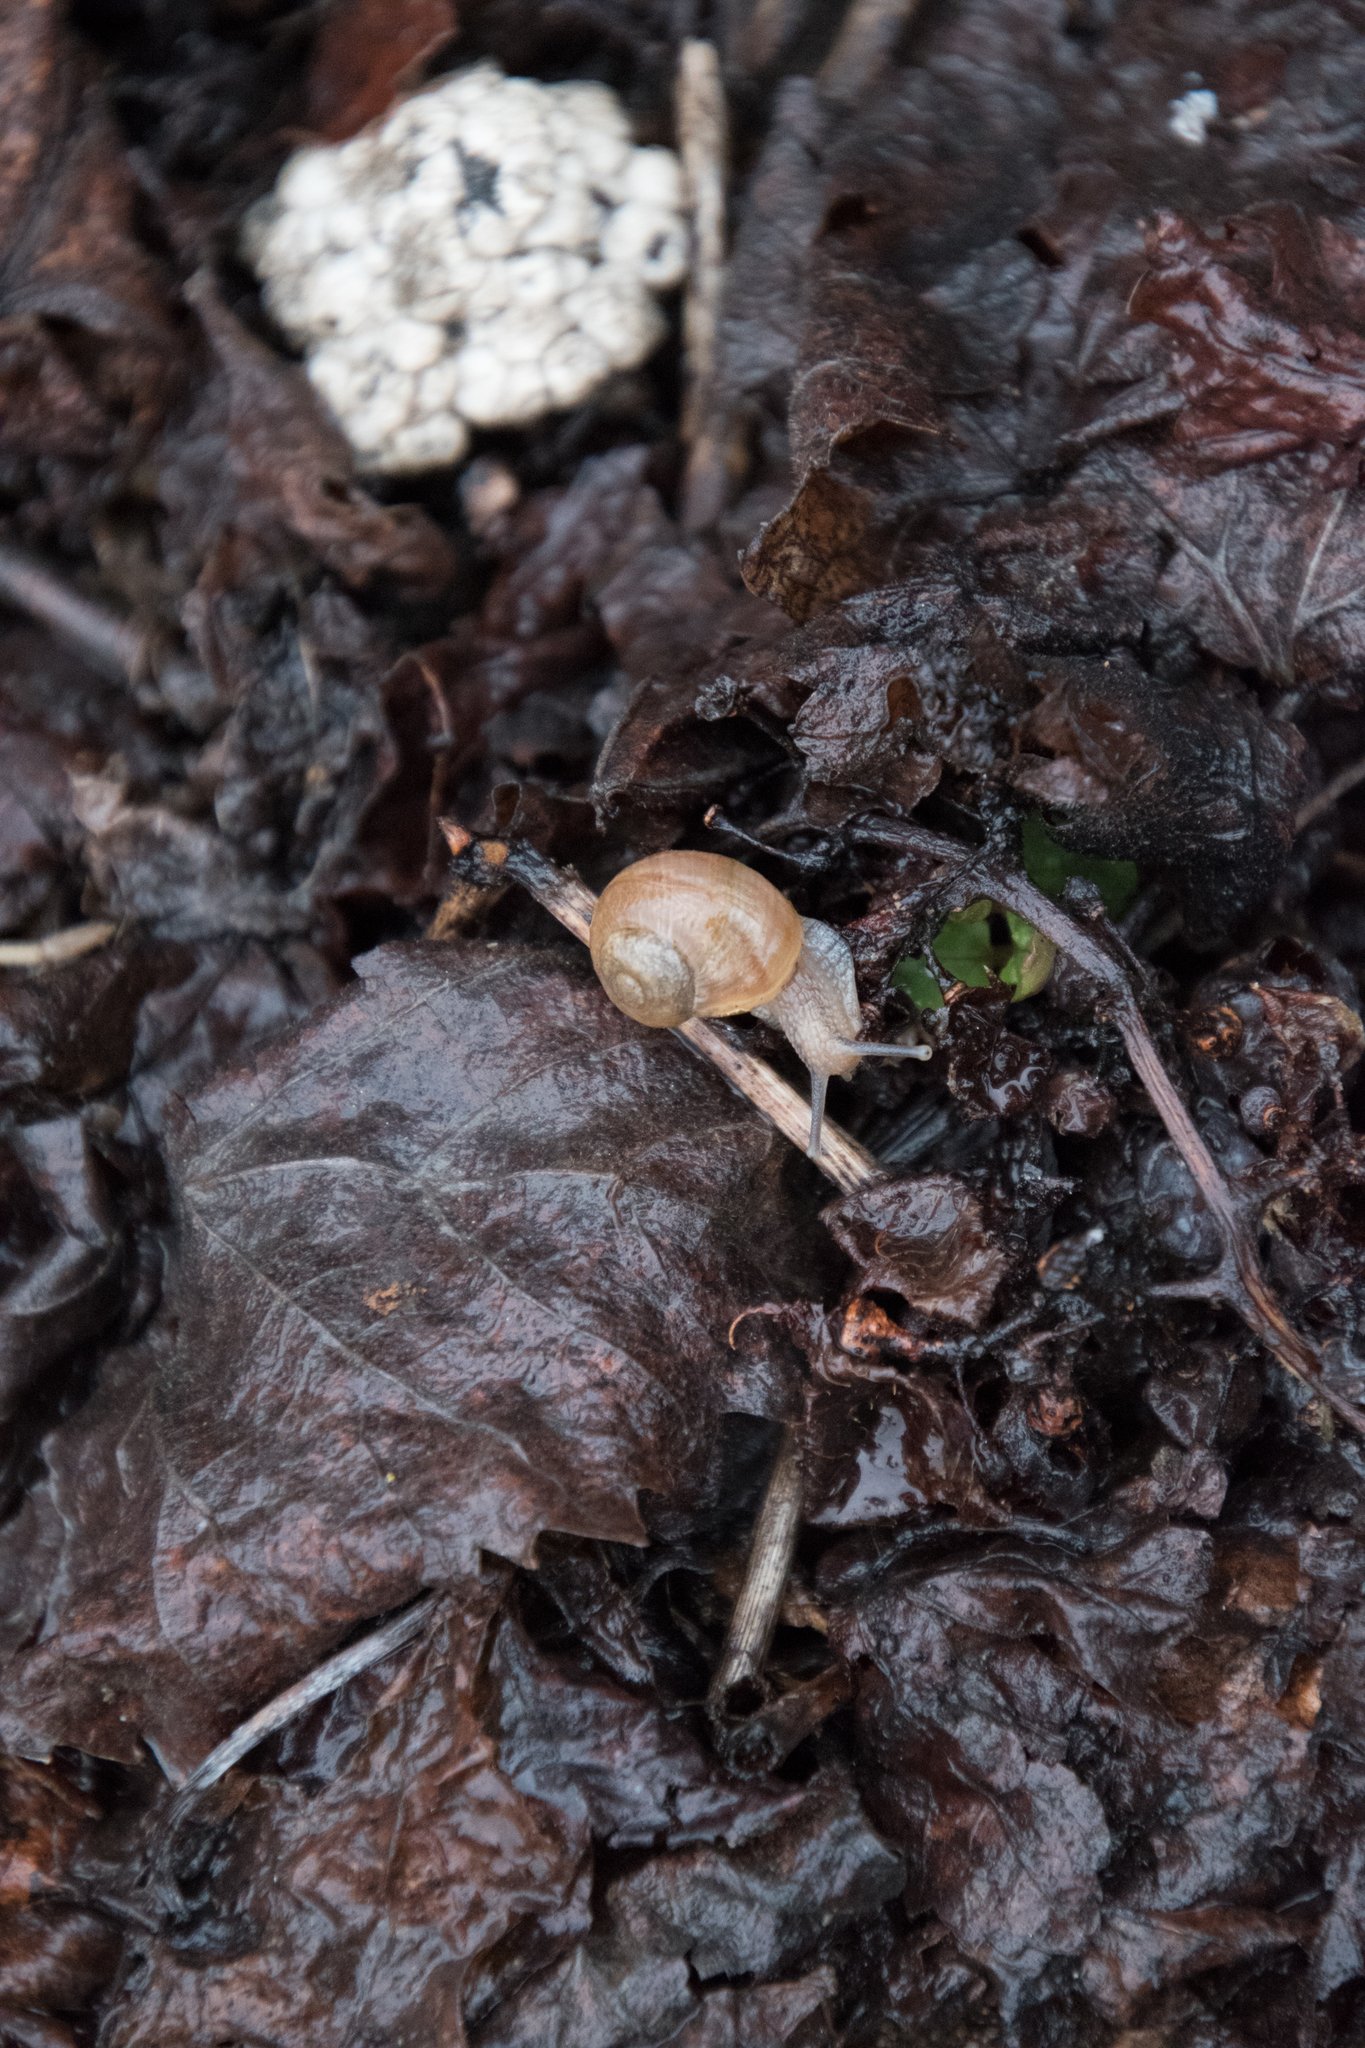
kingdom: Animalia
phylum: Mollusca
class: Gastropoda
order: Stylommatophora
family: Helicidae
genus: Helix
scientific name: Helix pomatia
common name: Roman snail
